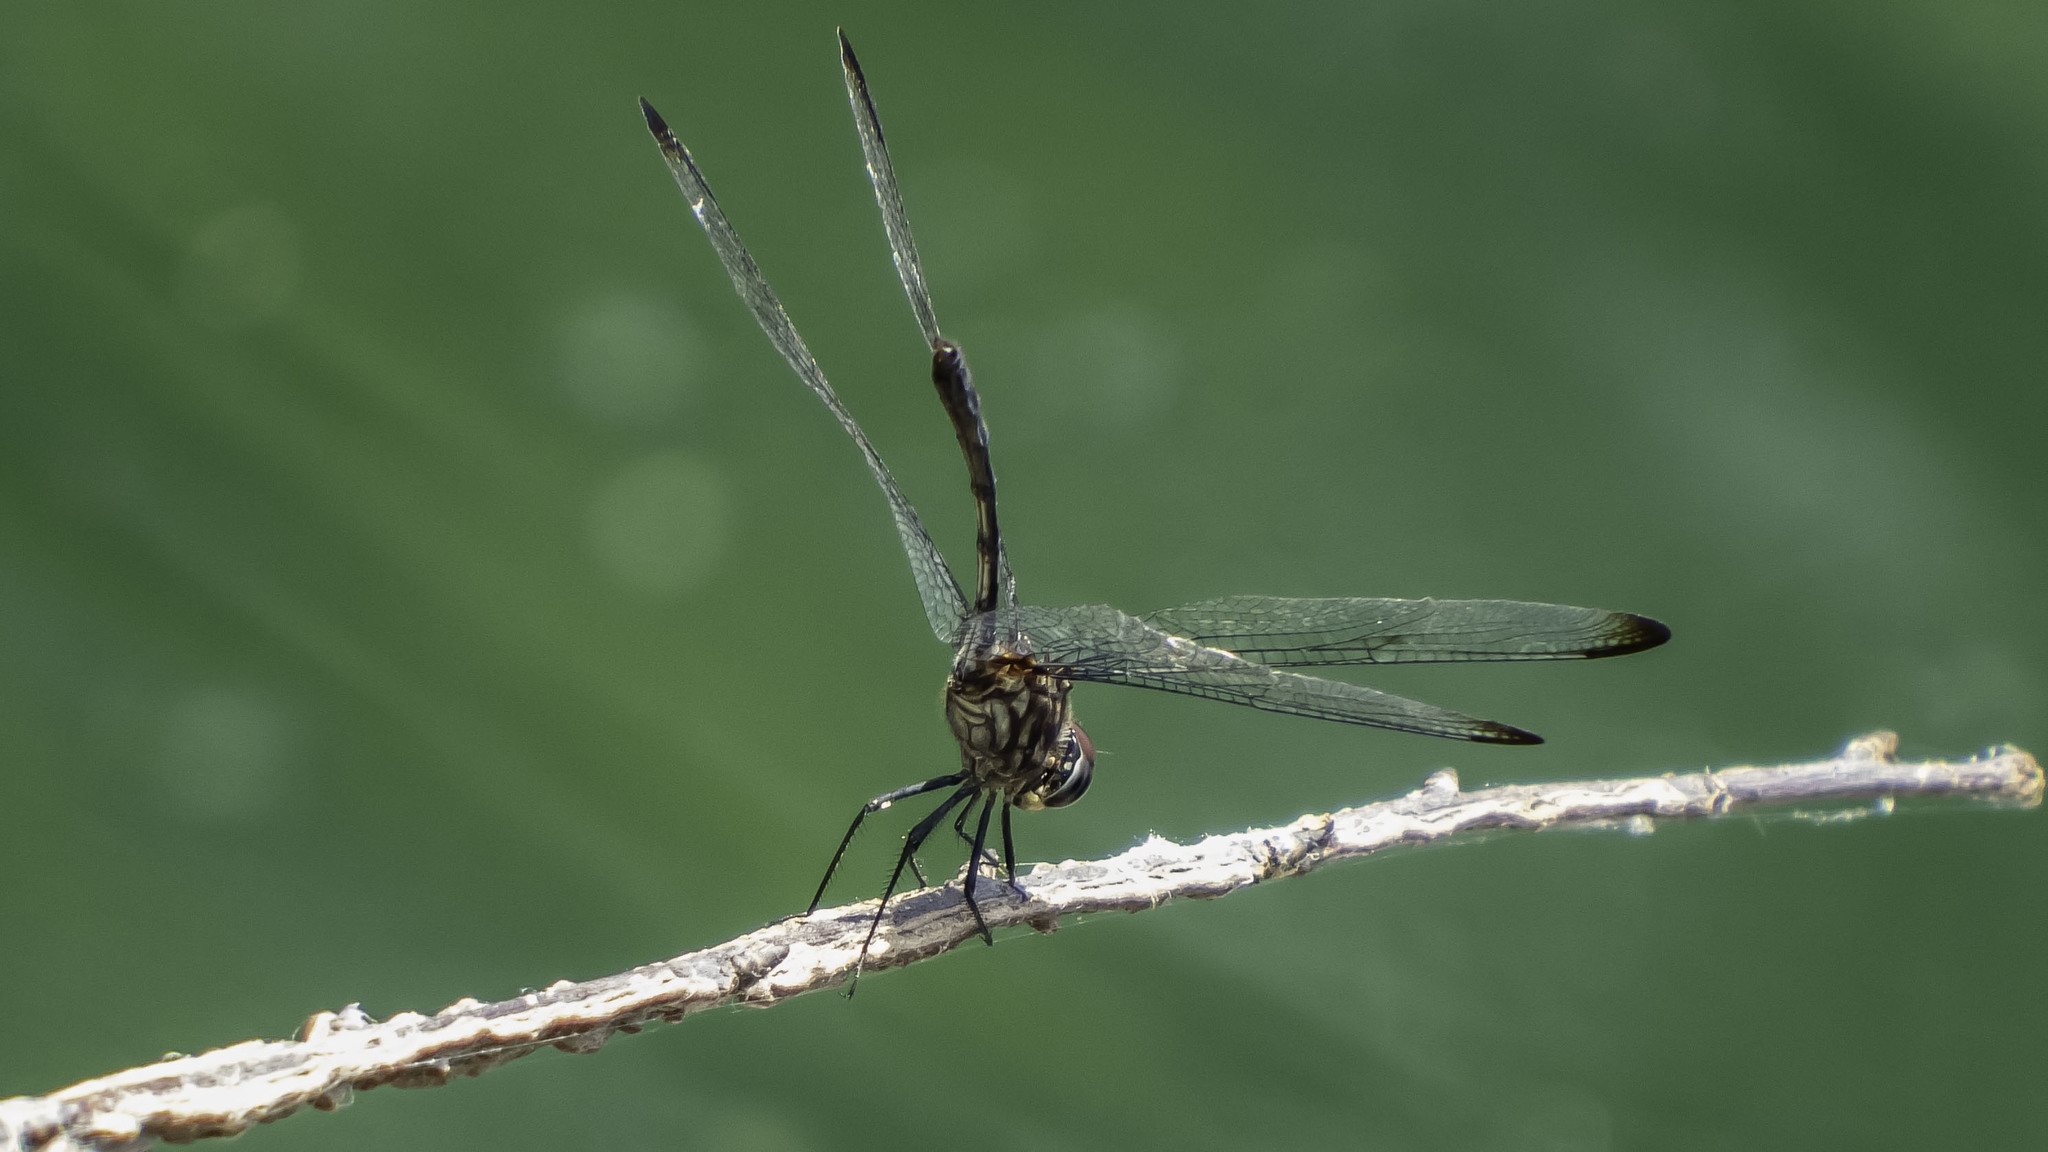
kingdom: Animalia
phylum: Arthropoda
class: Insecta
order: Odonata
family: Libellulidae
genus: Dythemis
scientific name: Dythemis velox
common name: Swift setwing
